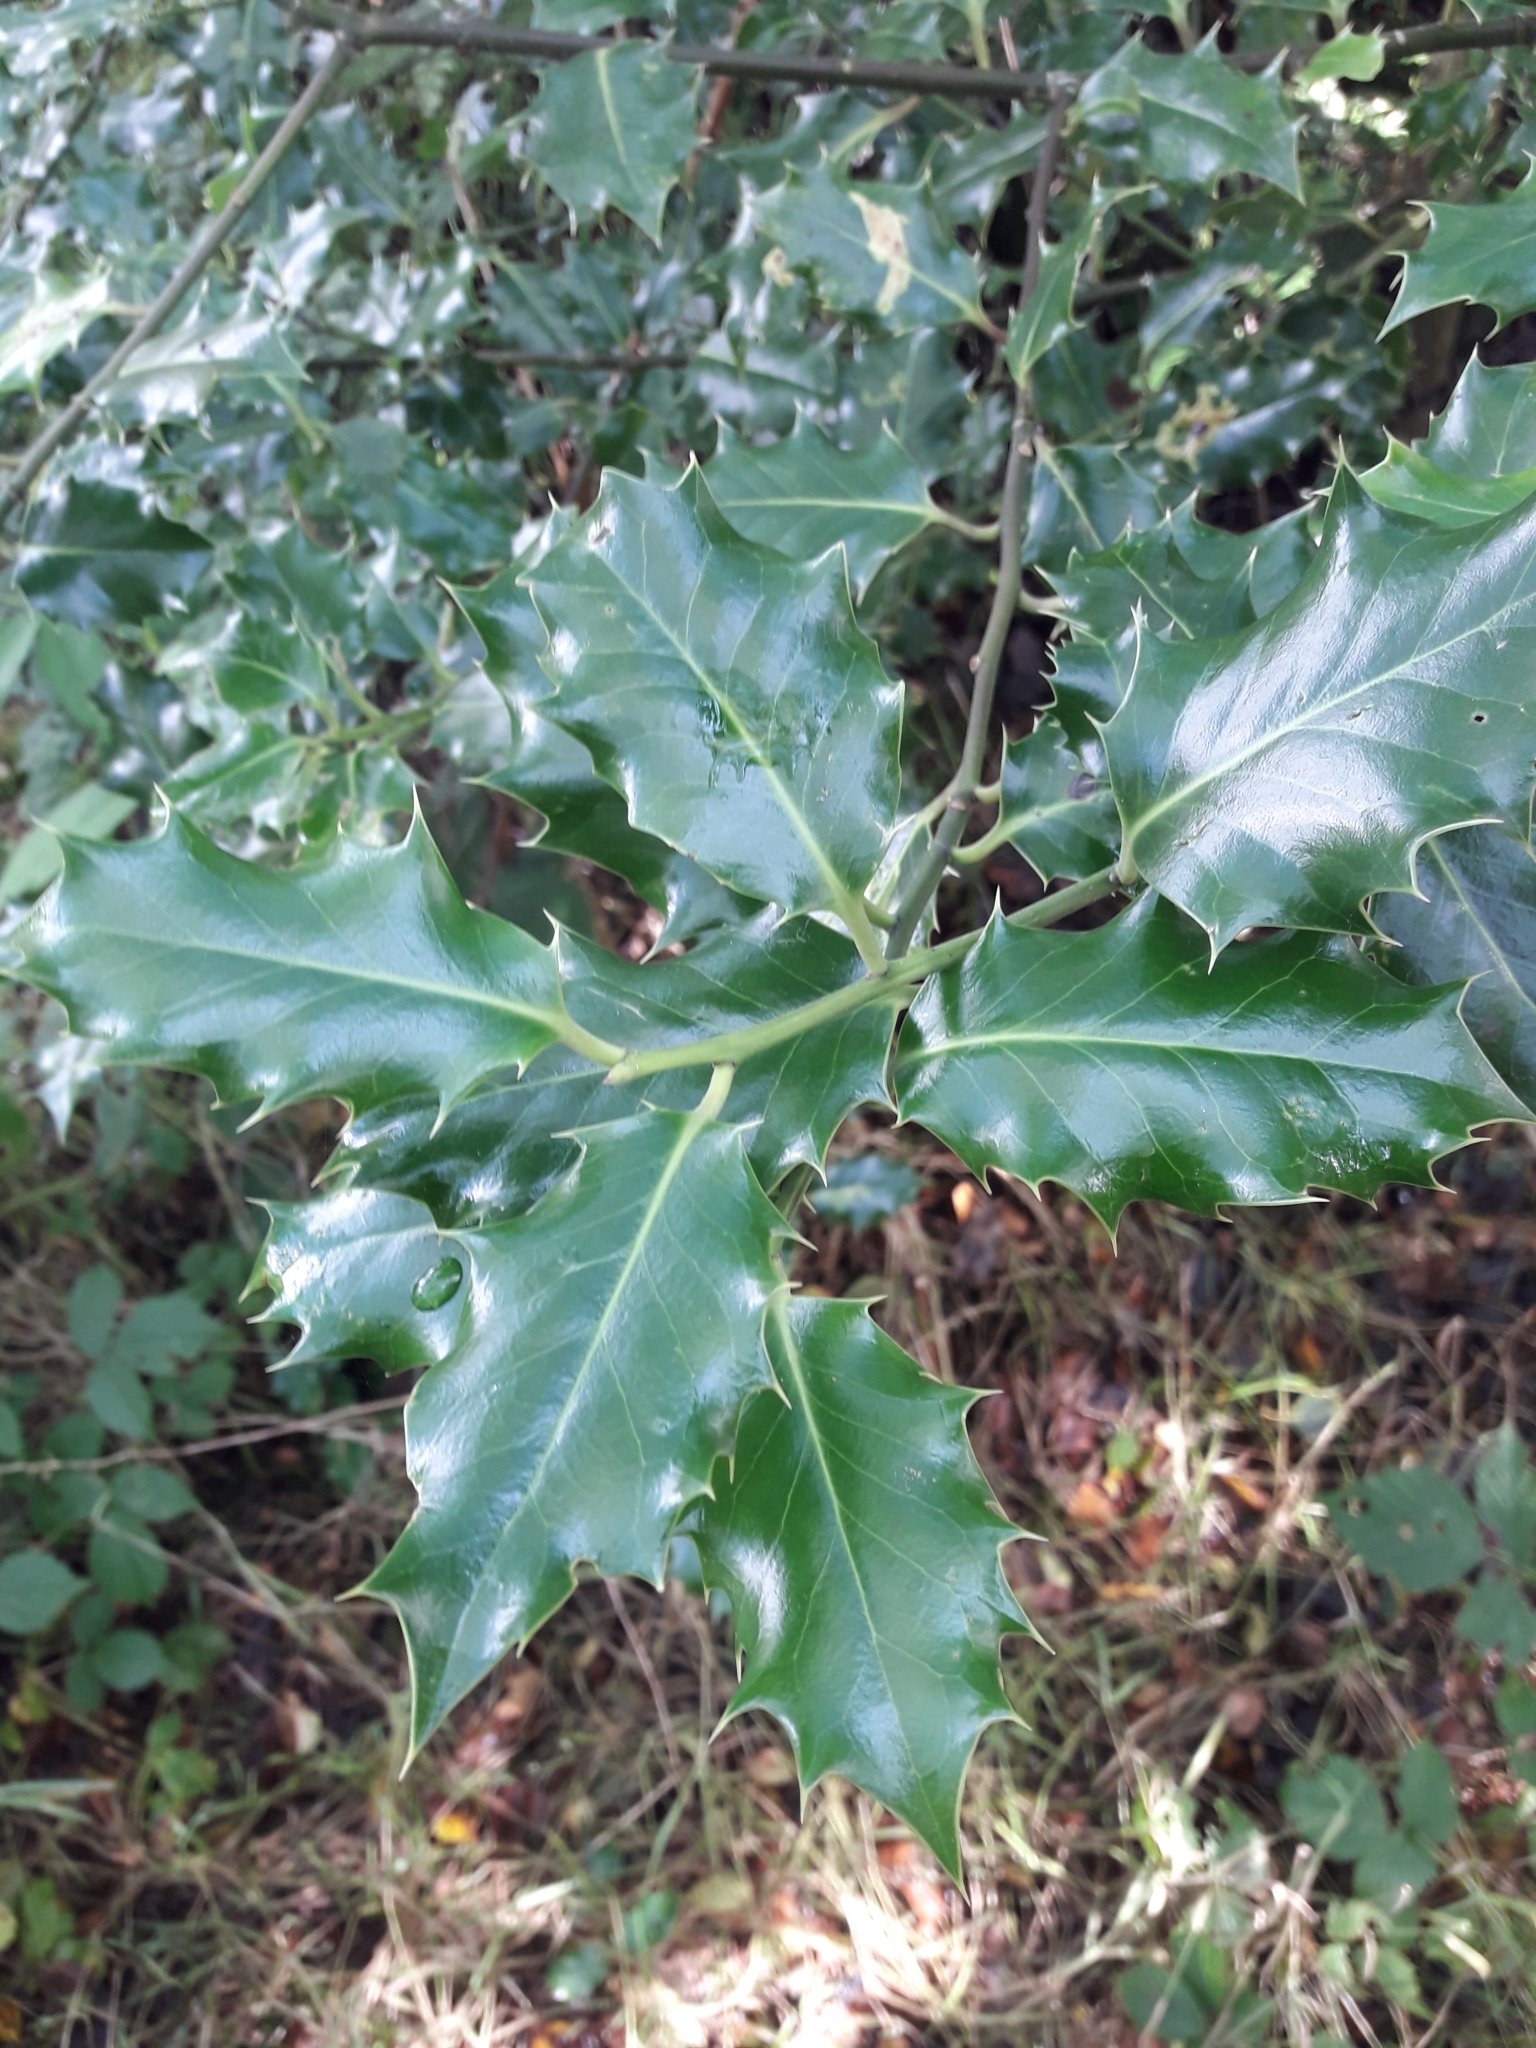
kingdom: Plantae
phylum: Tracheophyta
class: Magnoliopsida
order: Aquifoliales
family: Aquifoliaceae
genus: Ilex
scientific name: Ilex aquifolium
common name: English holly
